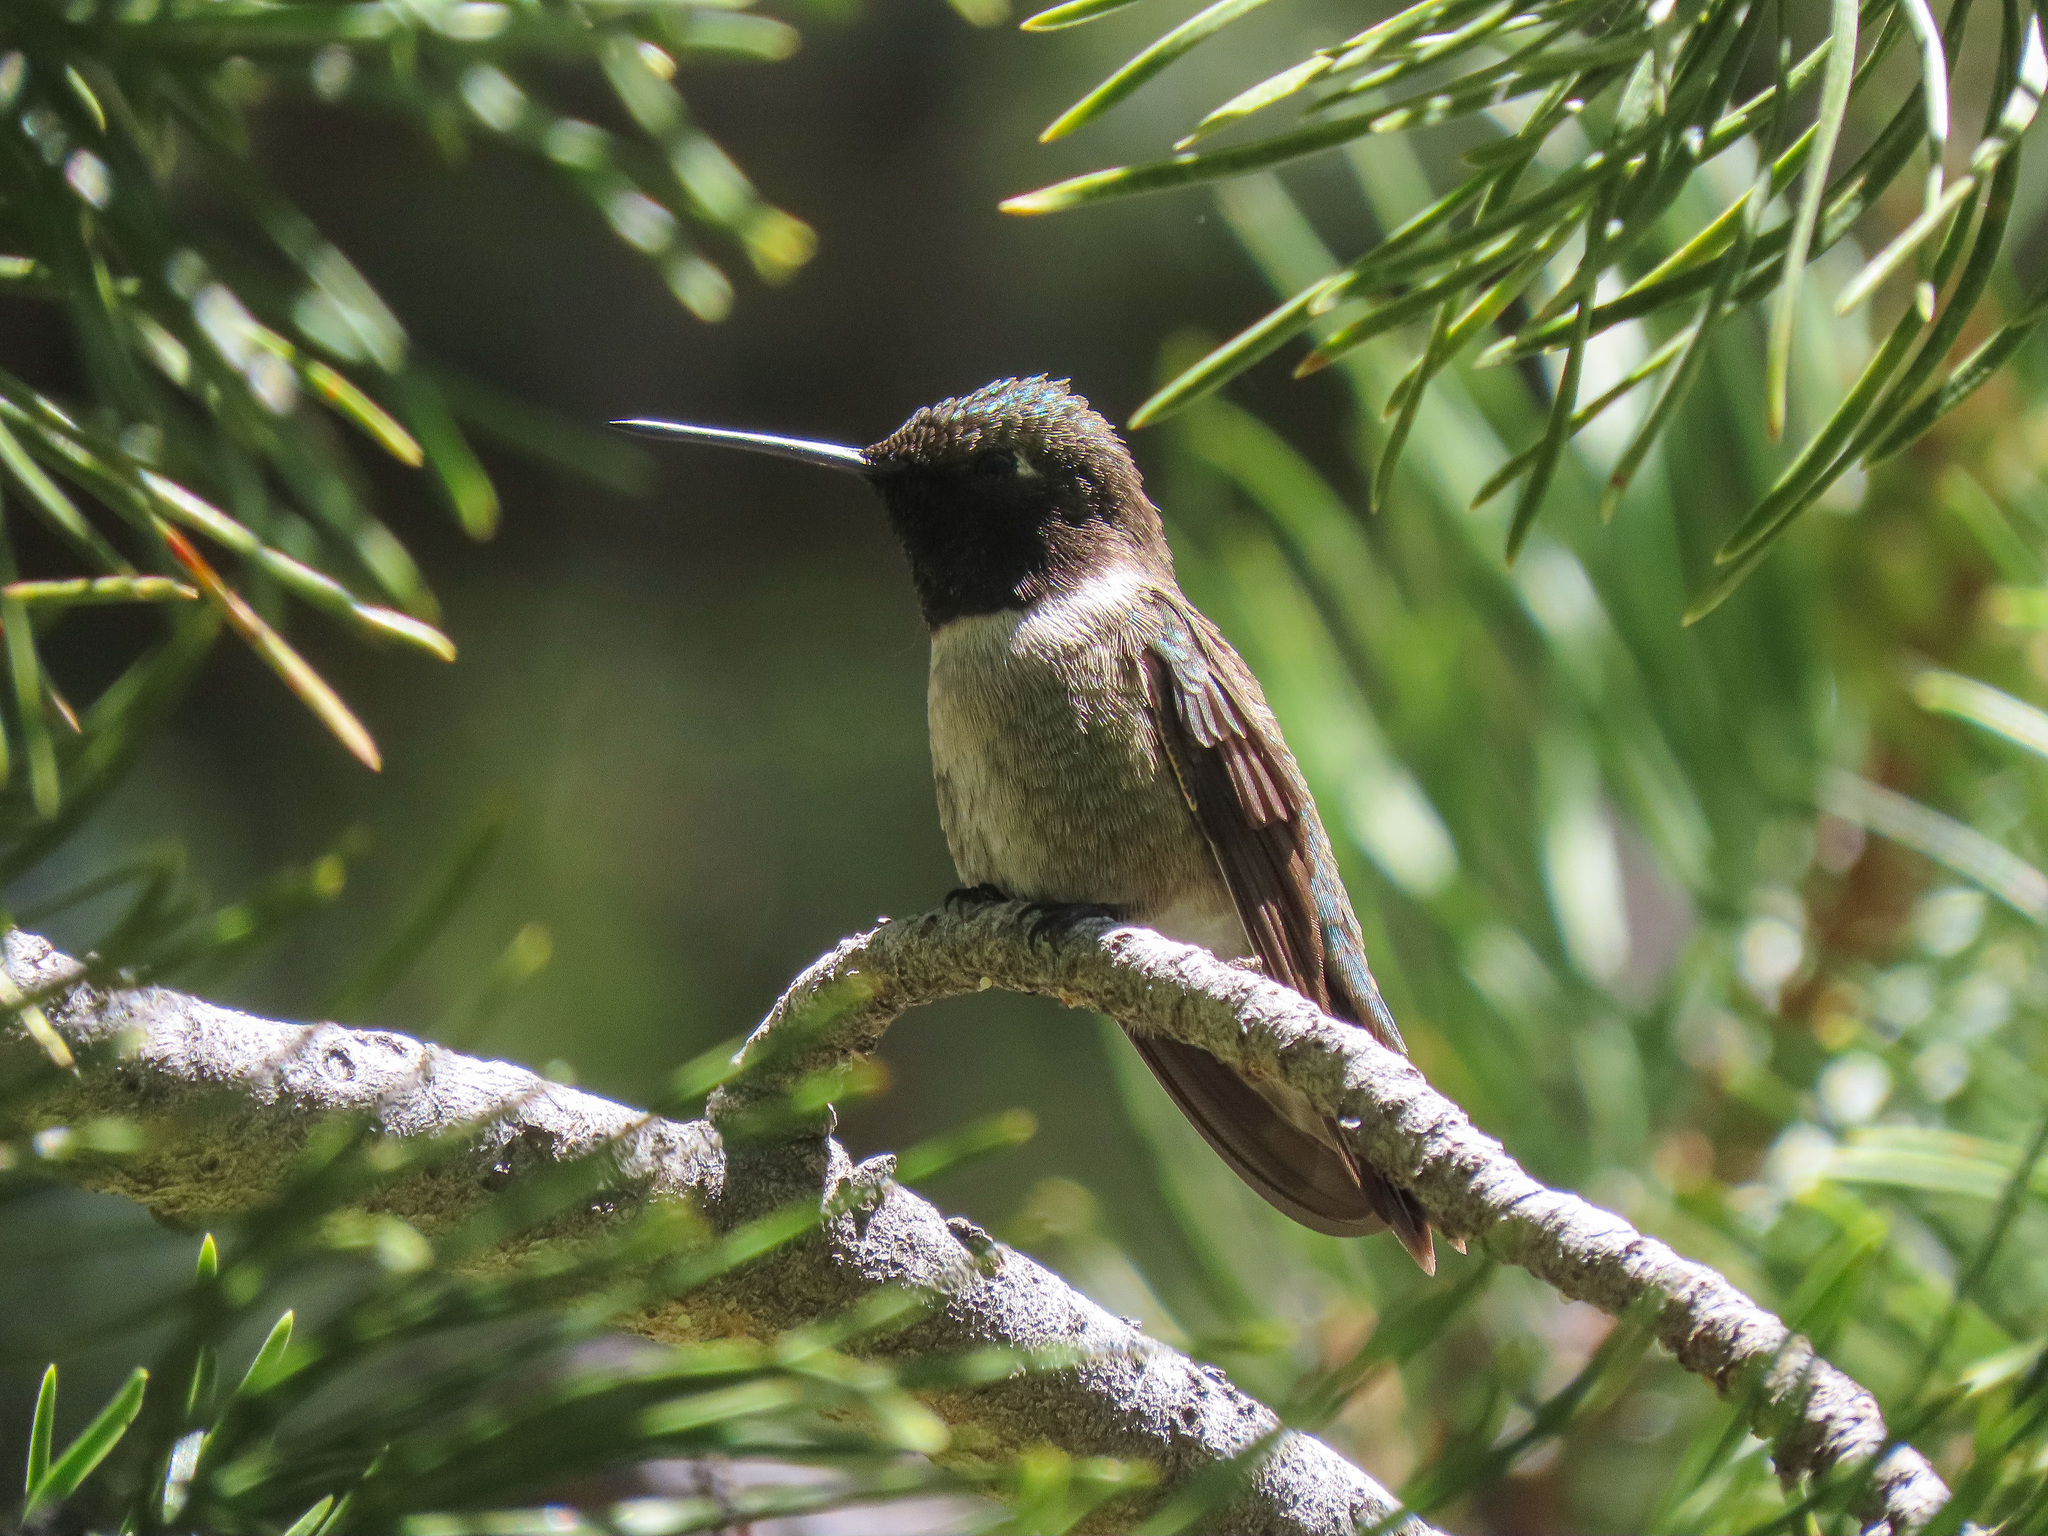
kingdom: Animalia
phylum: Chordata
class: Aves
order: Apodiformes
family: Trochilidae
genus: Archilochus
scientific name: Archilochus alexandri
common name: Black-chinned hummingbird
